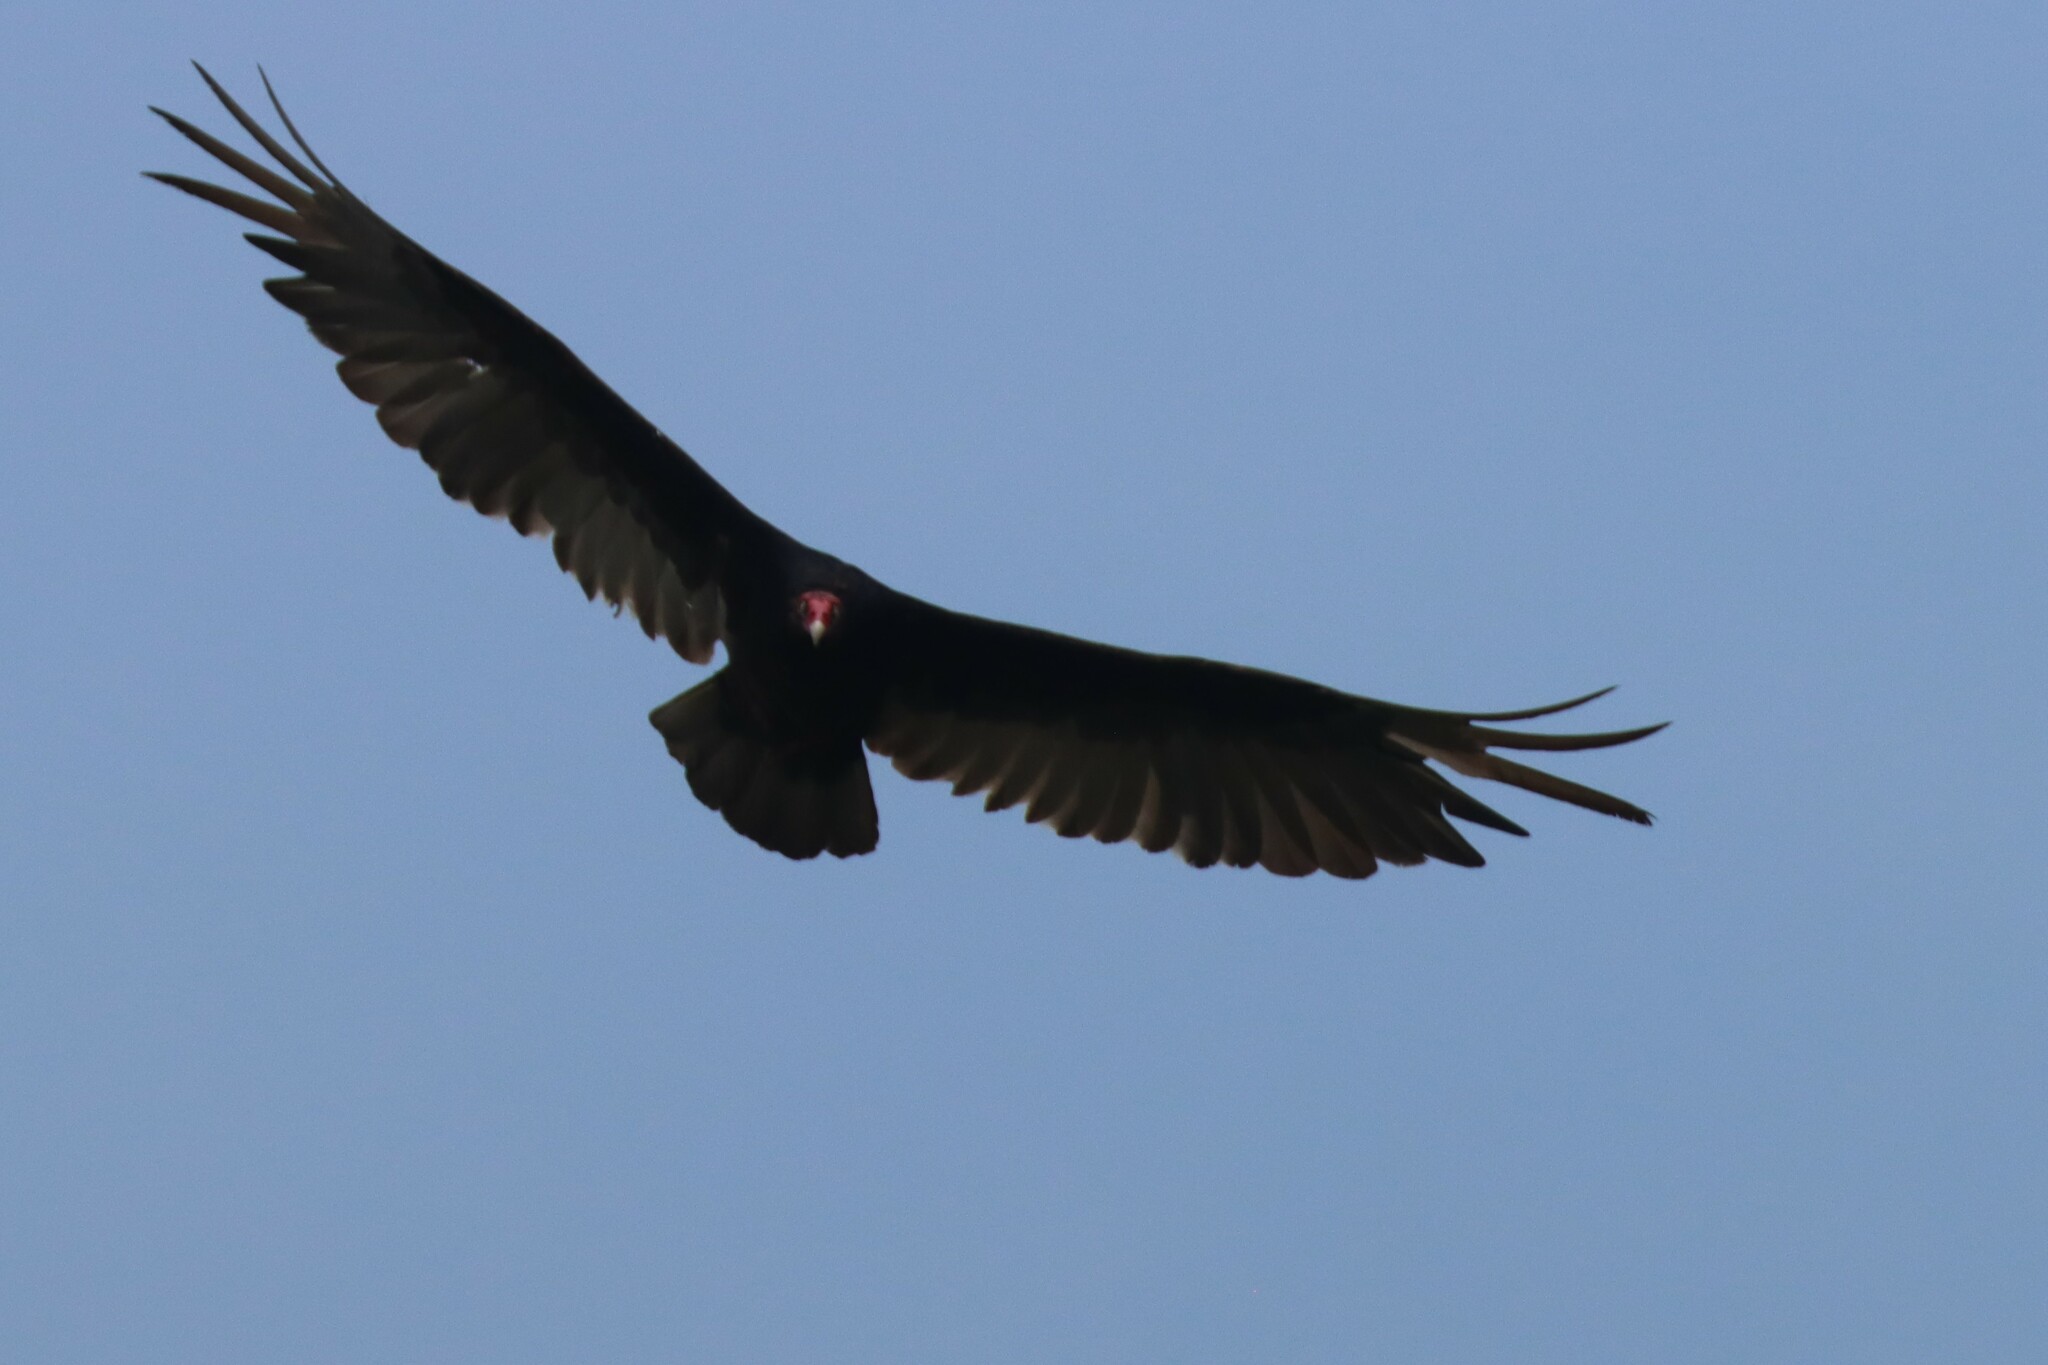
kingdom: Animalia
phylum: Chordata
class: Aves
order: Accipitriformes
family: Cathartidae
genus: Cathartes
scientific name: Cathartes aura
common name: Turkey vulture
